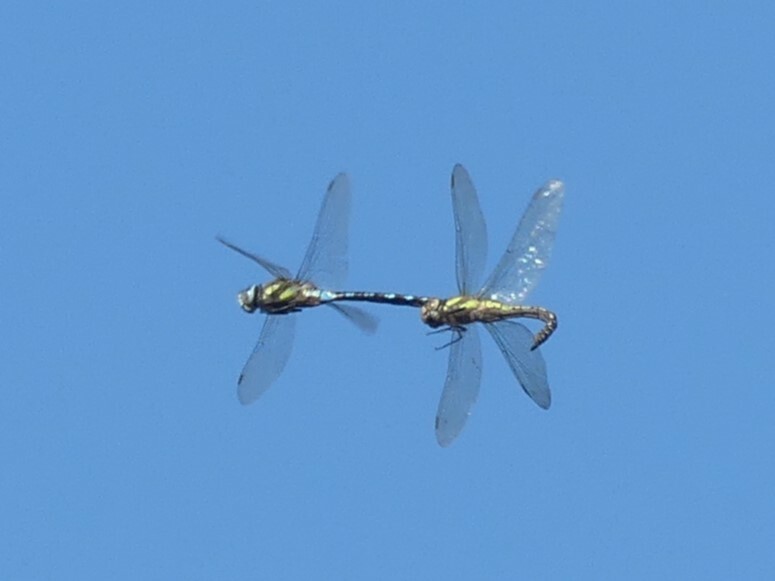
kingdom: Animalia
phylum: Arthropoda
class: Insecta
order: Odonata
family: Aeshnidae
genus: Aeshna
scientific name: Aeshna mixta
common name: Migrant hawker
